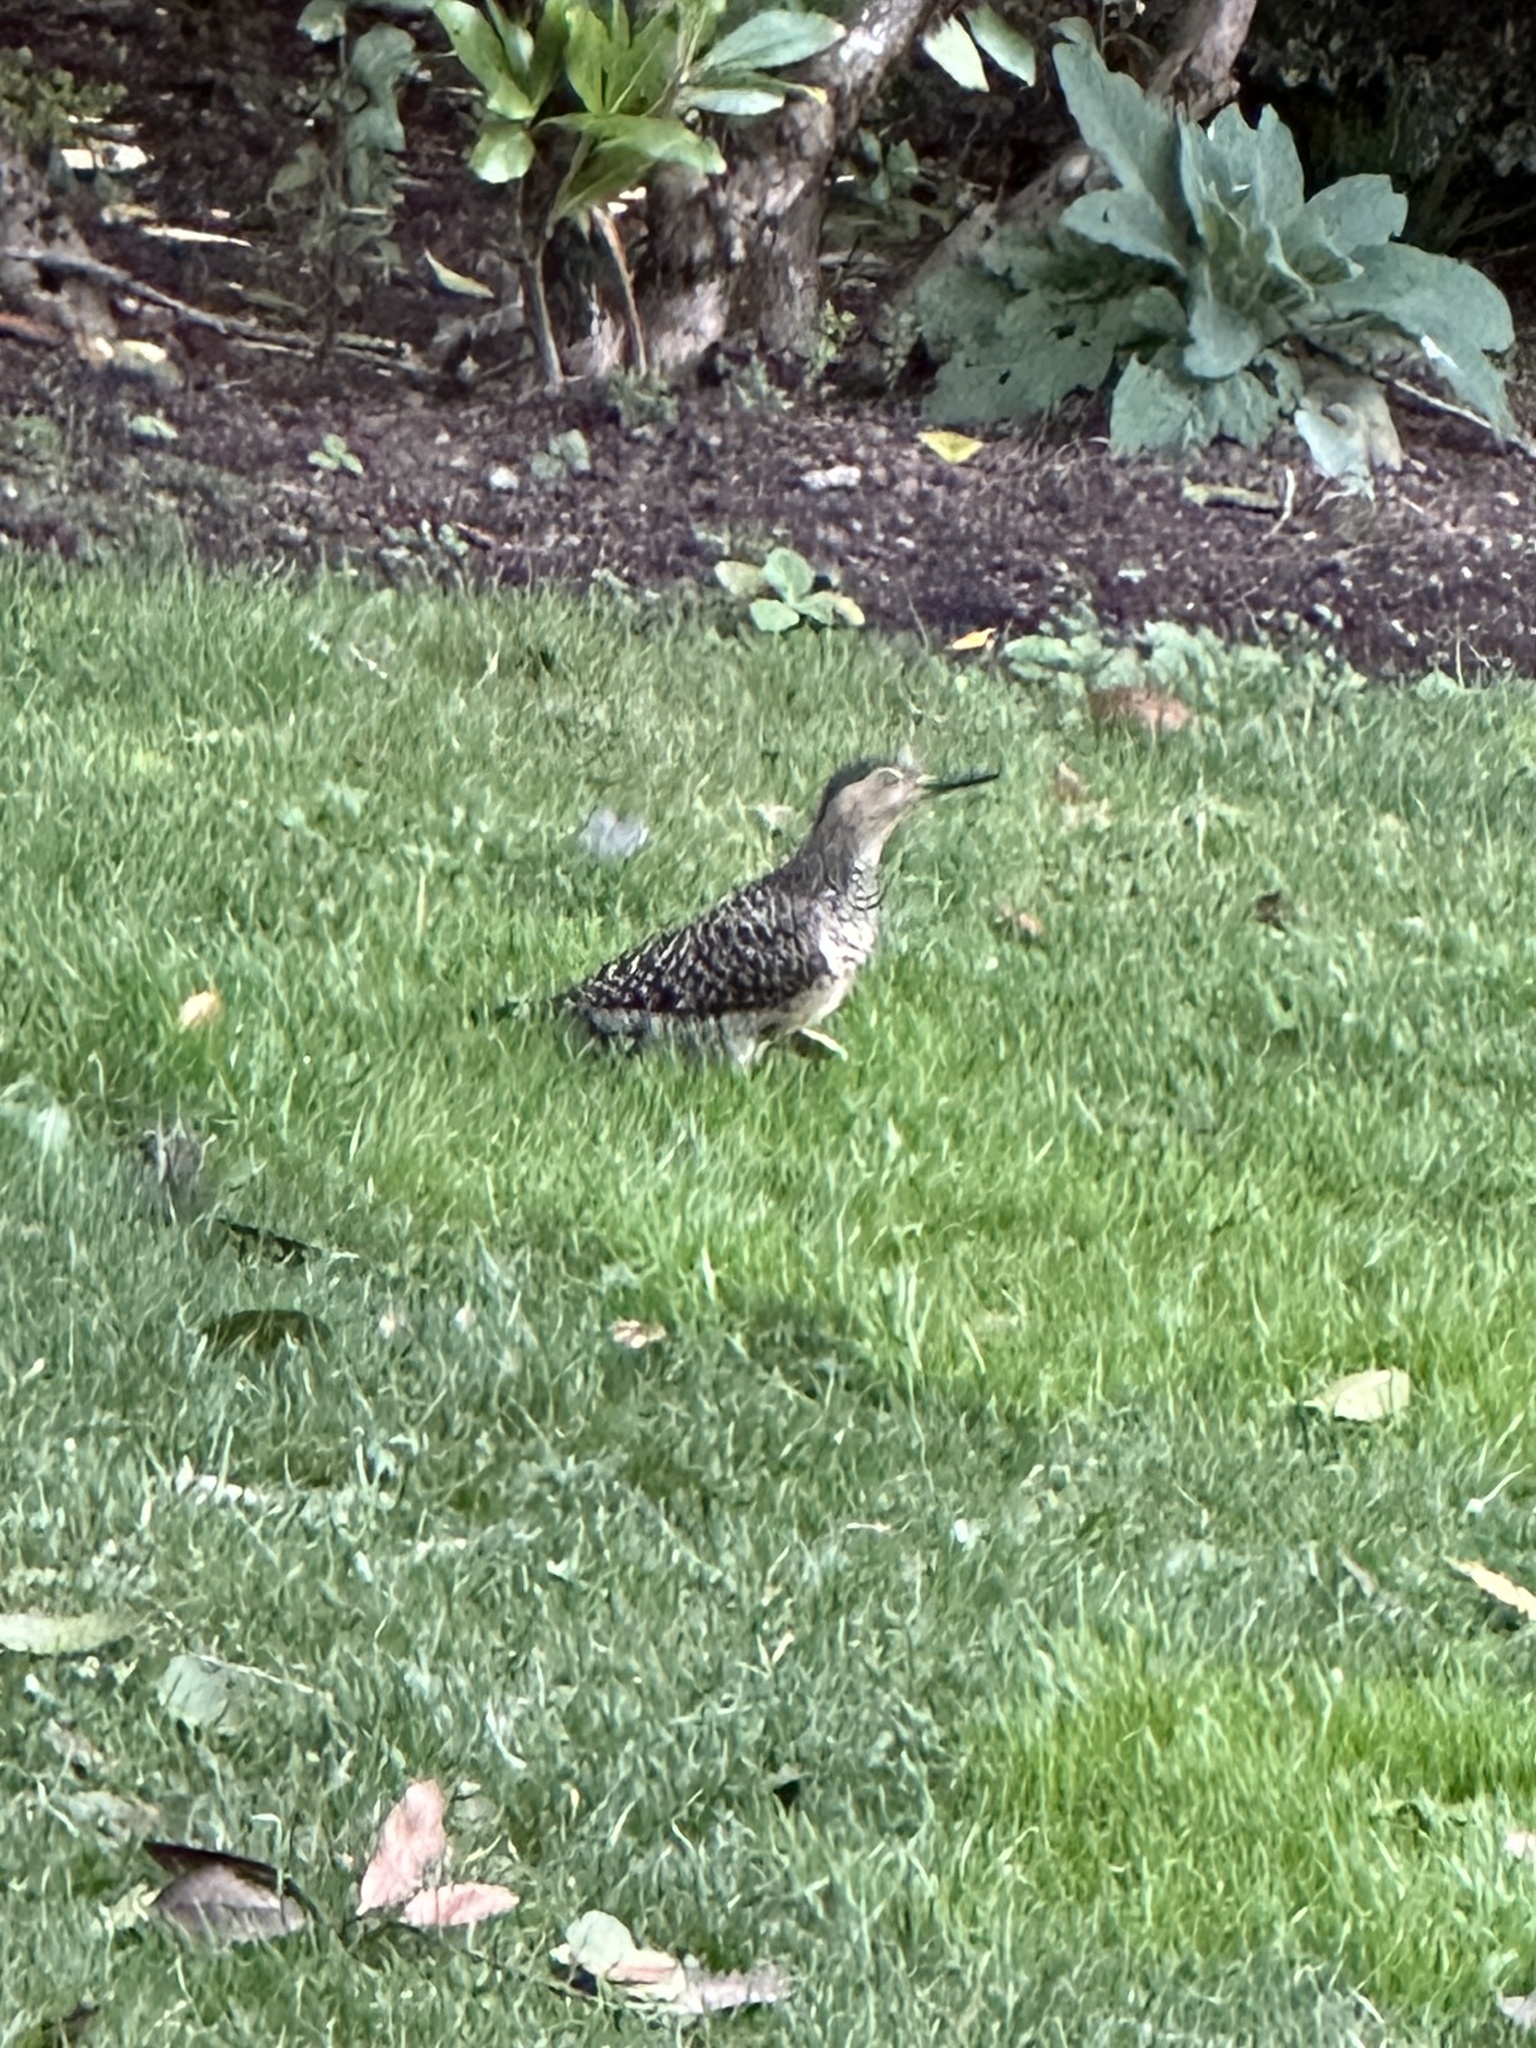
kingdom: Animalia
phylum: Chordata
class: Aves
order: Piciformes
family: Picidae
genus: Colaptes
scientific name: Colaptes pitius
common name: Chilean flicker
